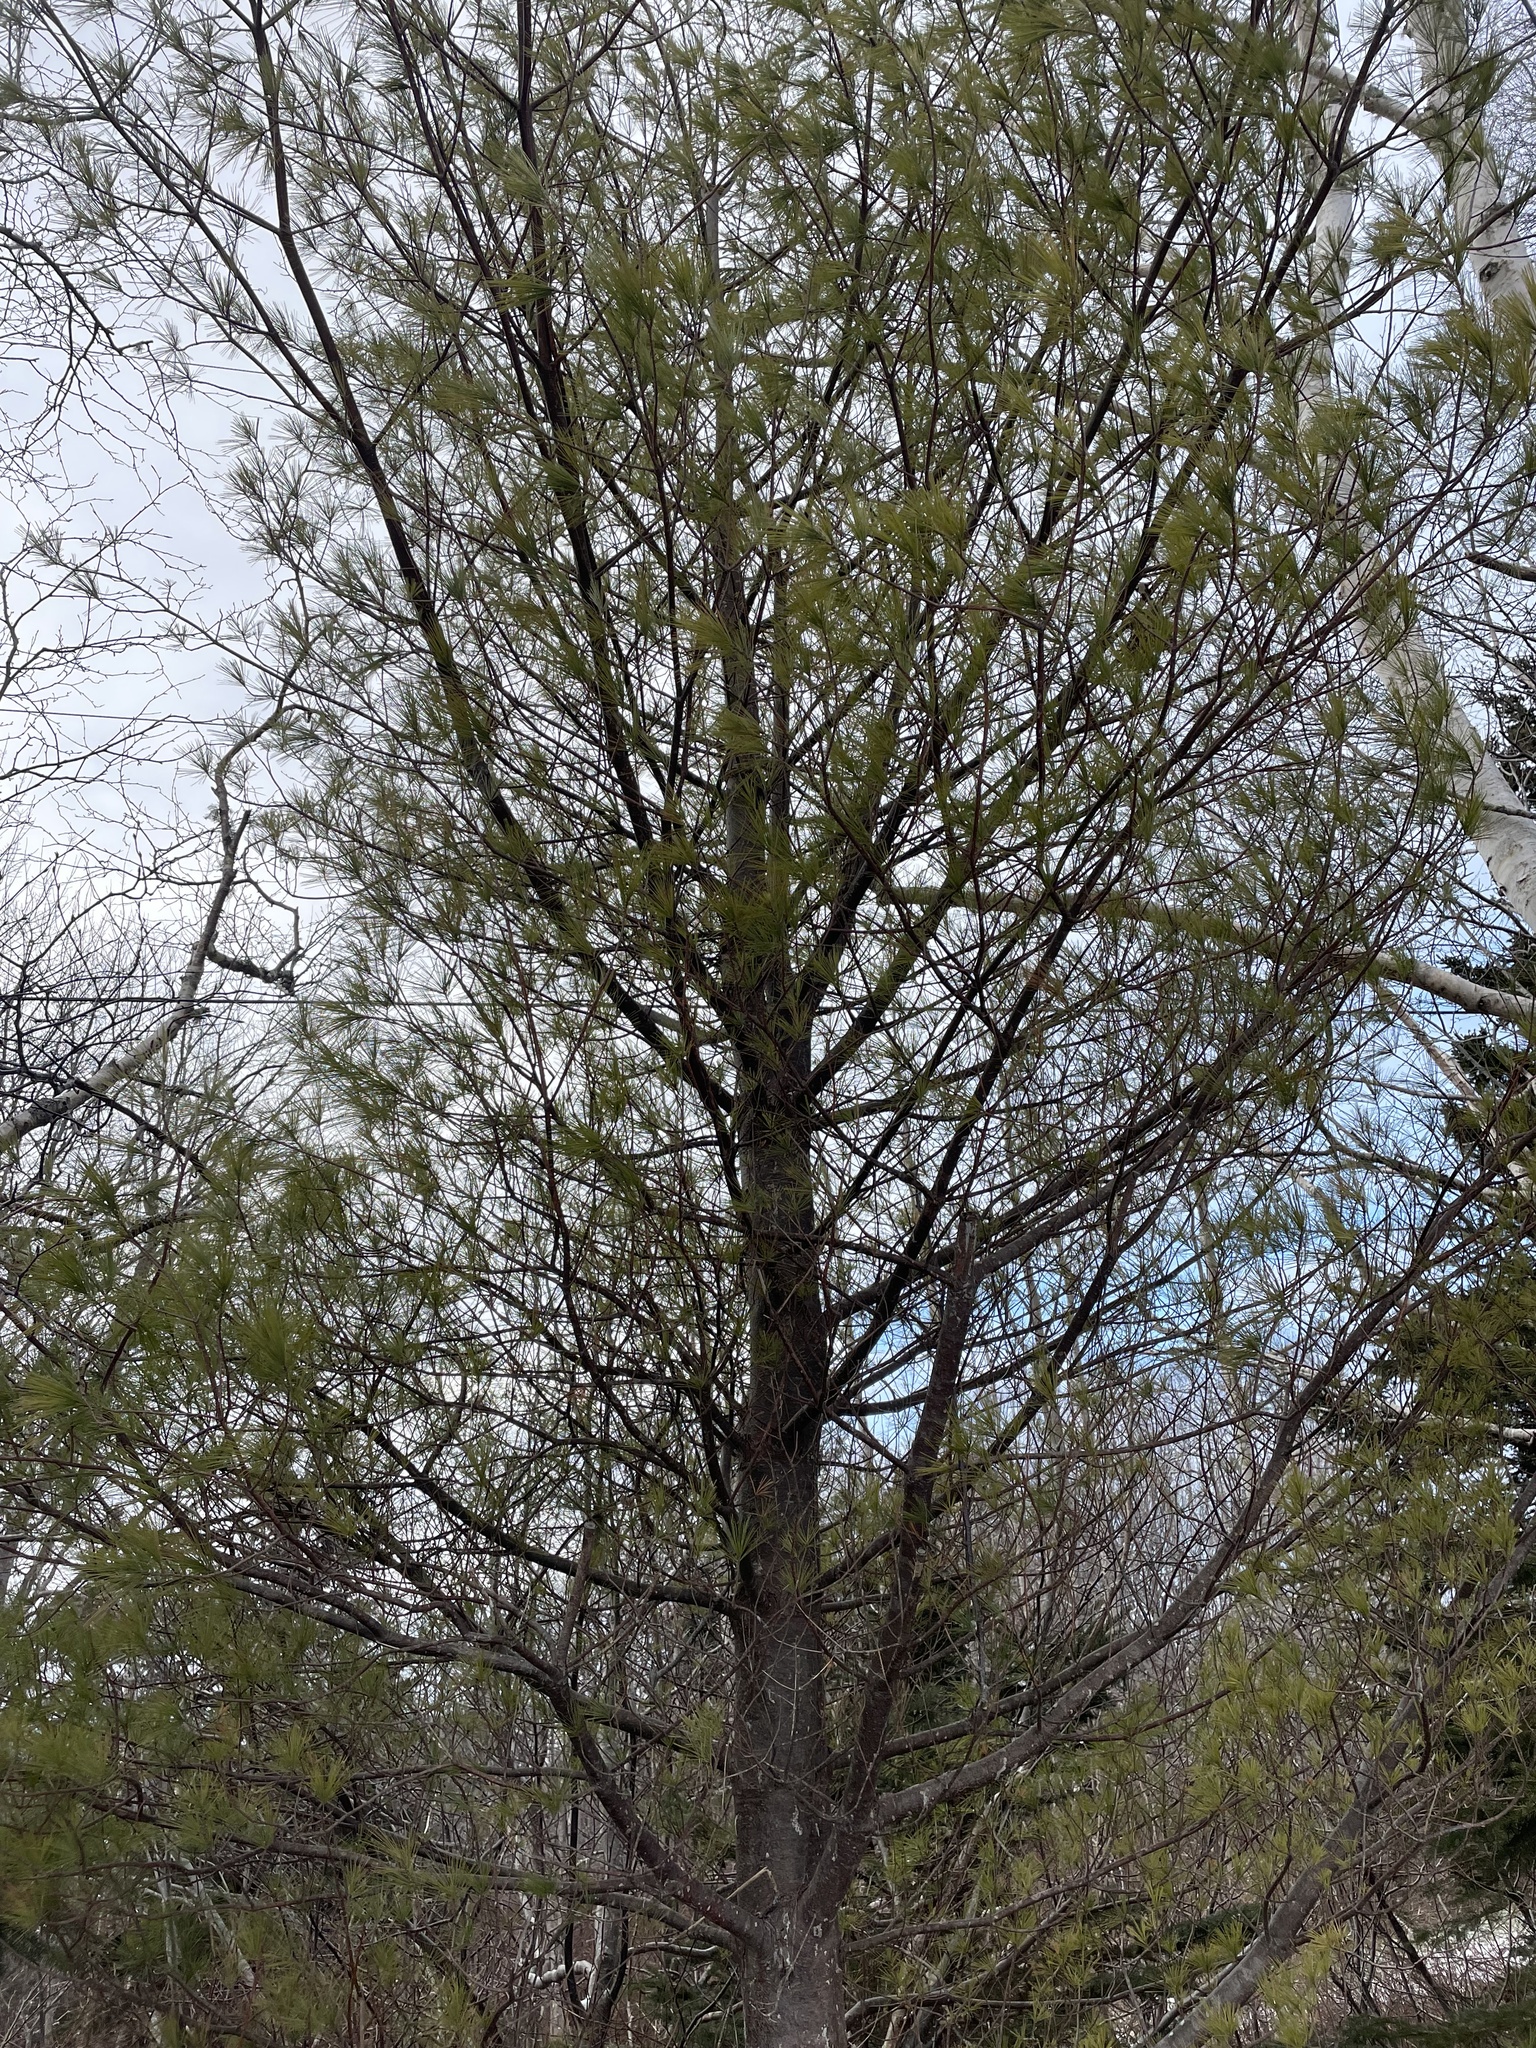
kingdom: Plantae
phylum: Tracheophyta
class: Pinopsida
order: Pinales
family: Pinaceae
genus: Pinus
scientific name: Pinus strobus
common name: Weymouth pine
